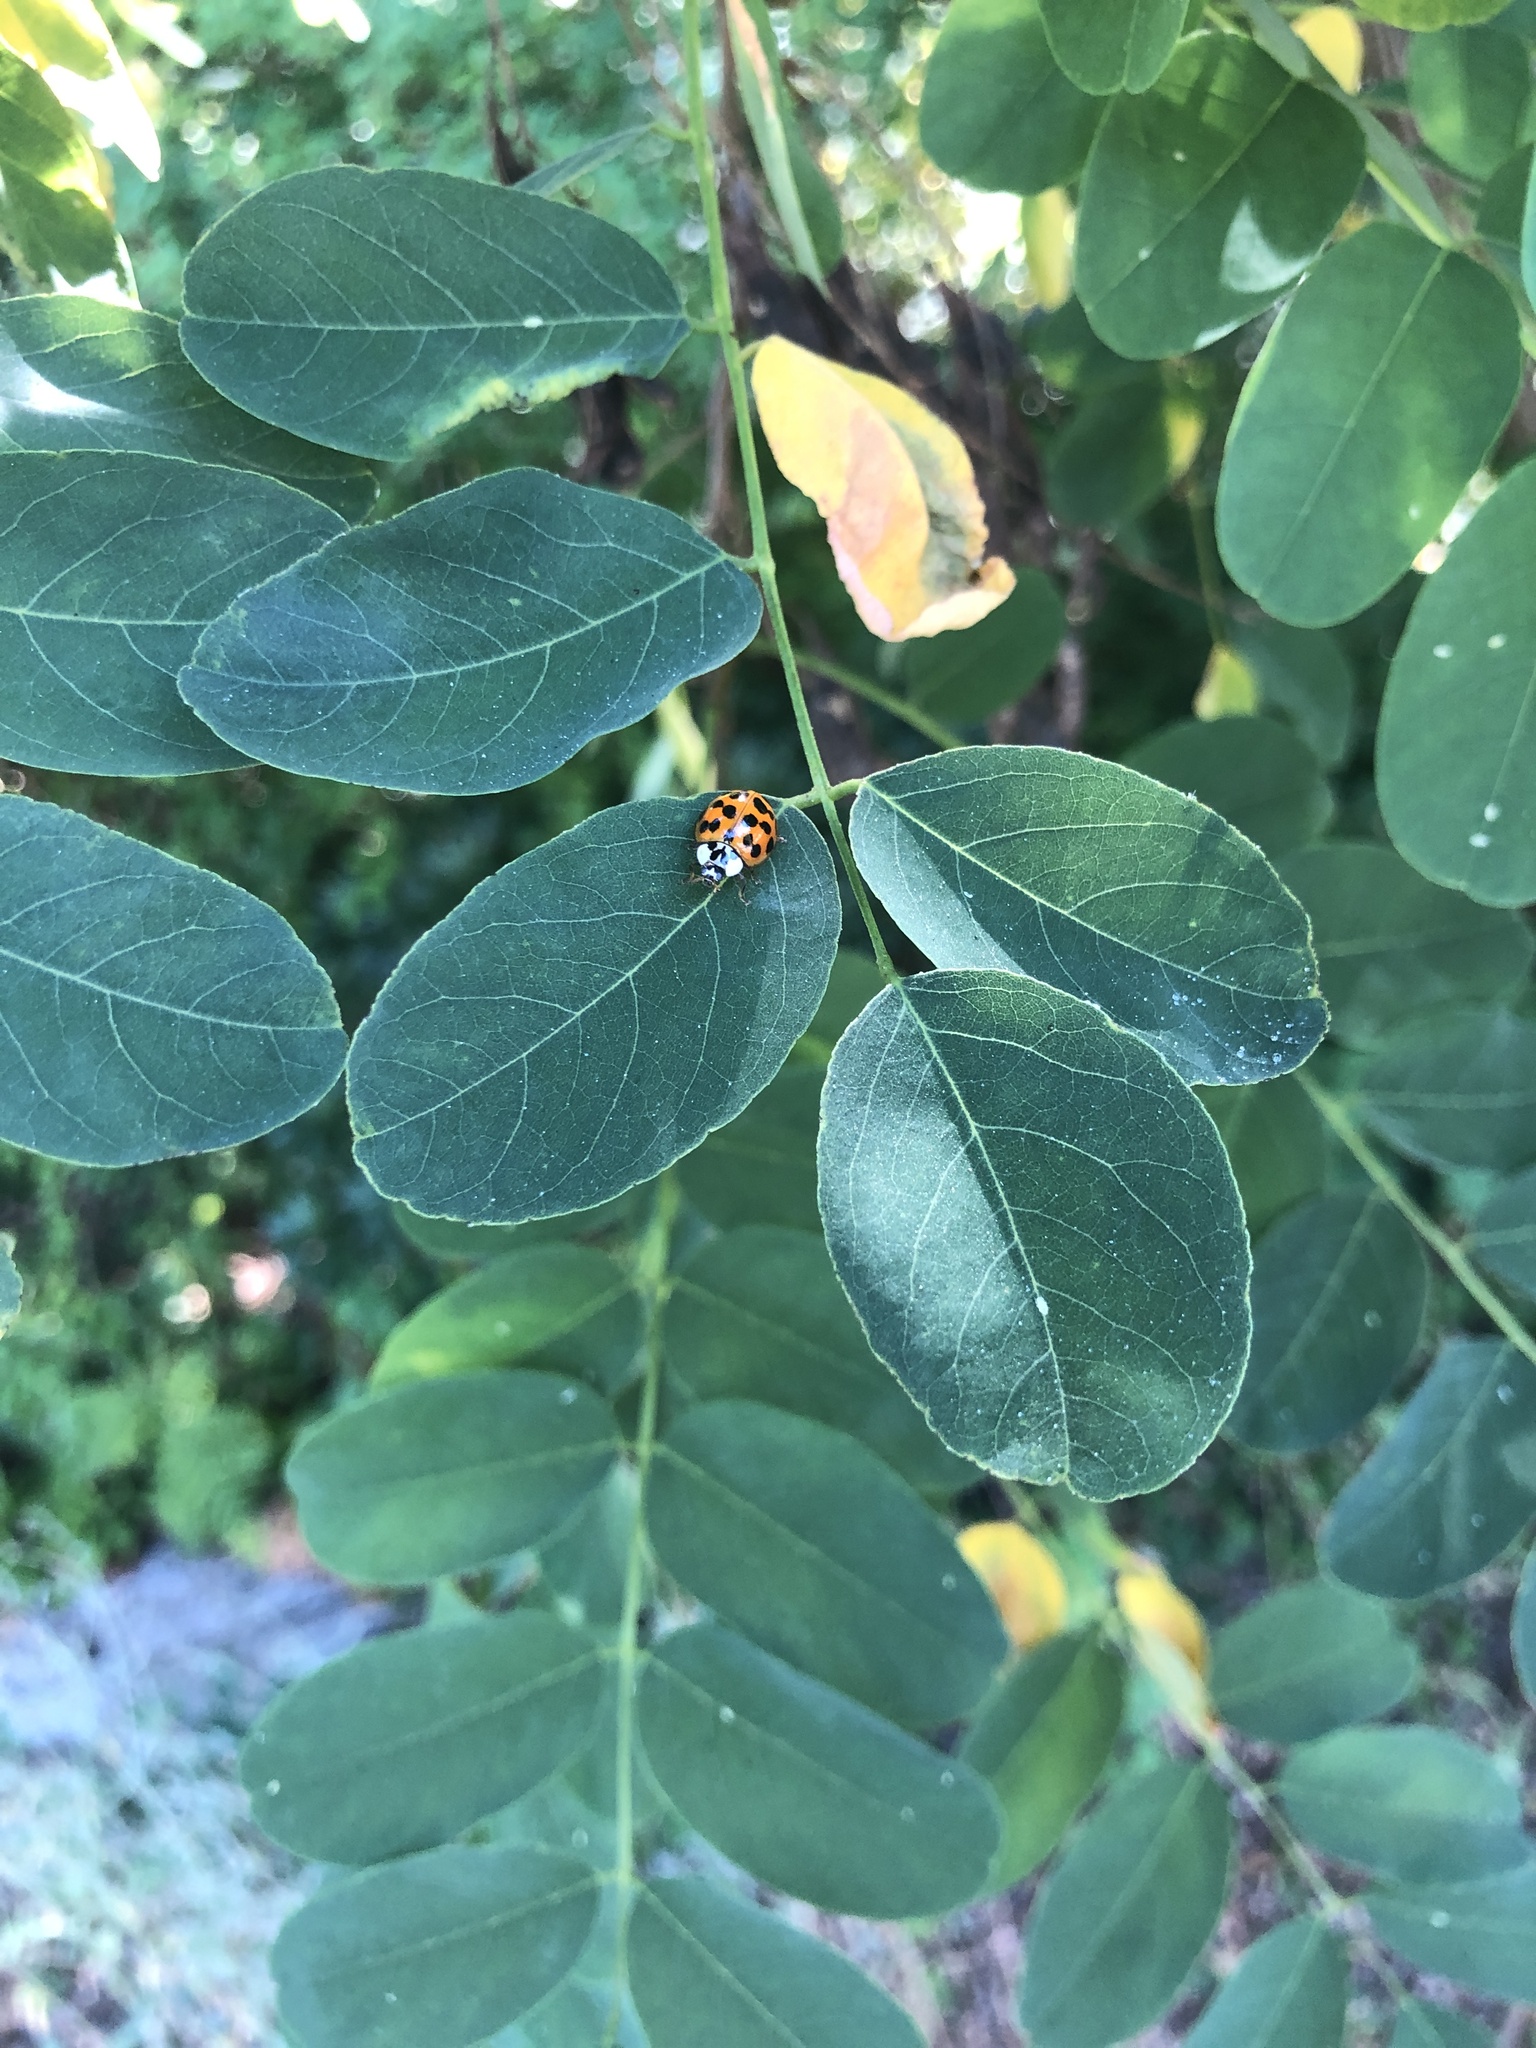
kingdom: Animalia
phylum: Arthropoda
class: Insecta
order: Coleoptera
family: Coccinellidae
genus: Harmonia
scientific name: Harmonia axyridis
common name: Harlequin ladybird
